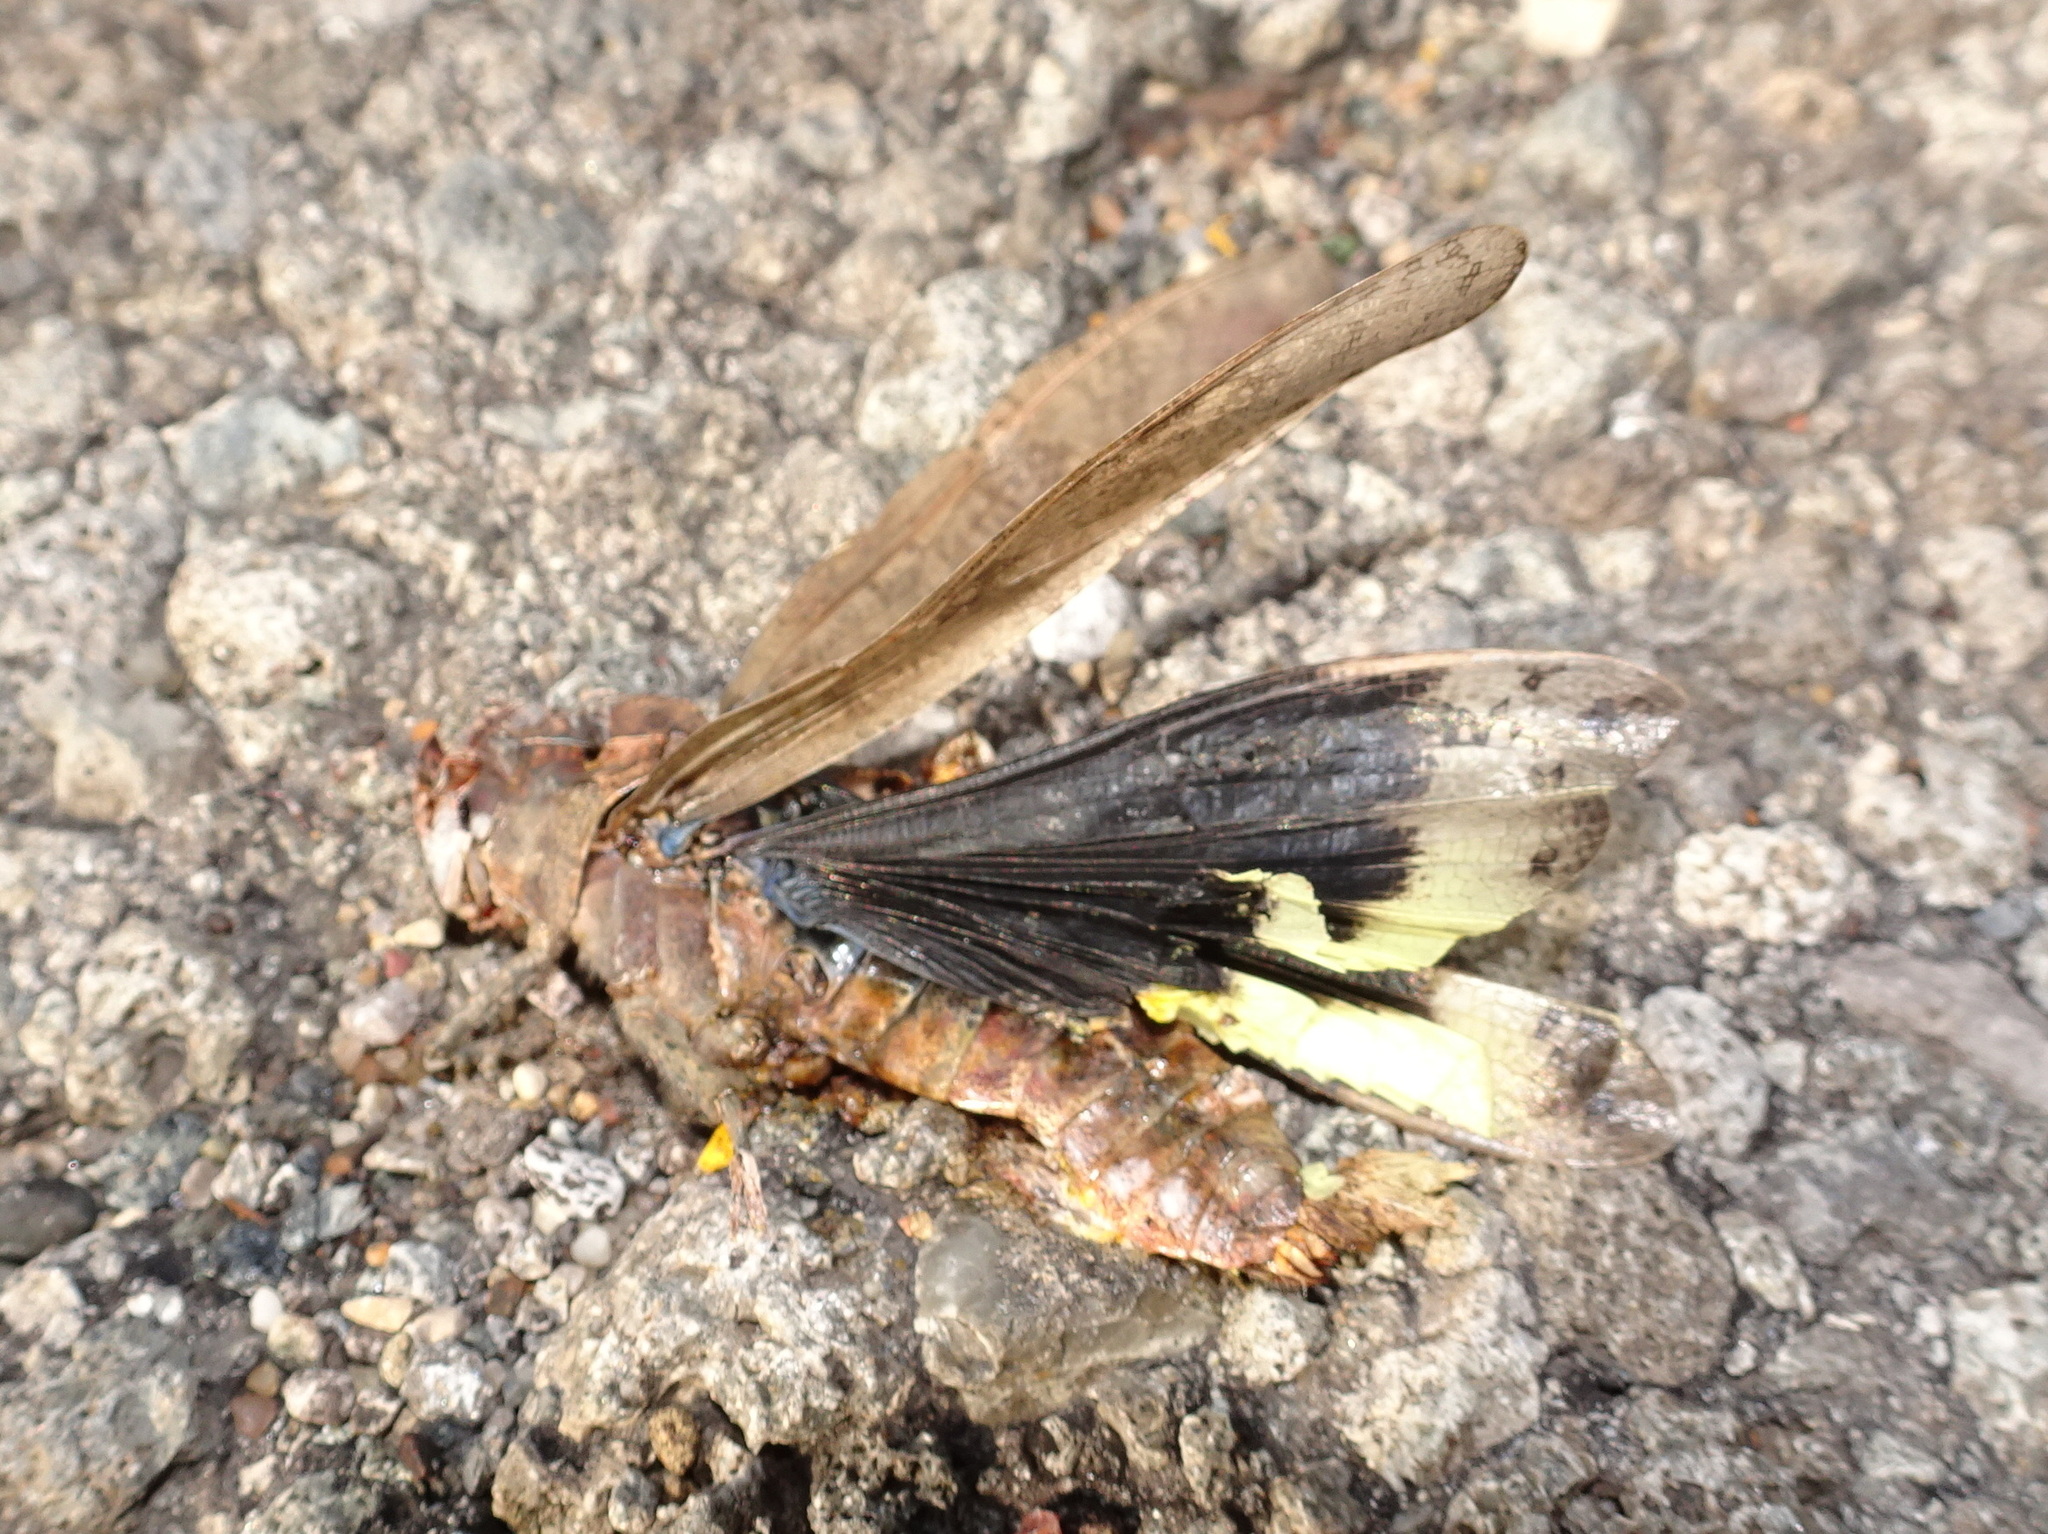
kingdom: Animalia
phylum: Arthropoda
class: Insecta
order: Orthoptera
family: Acrididae
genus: Dissosteira
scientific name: Dissosteira carolina
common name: Carolina grasshopper
